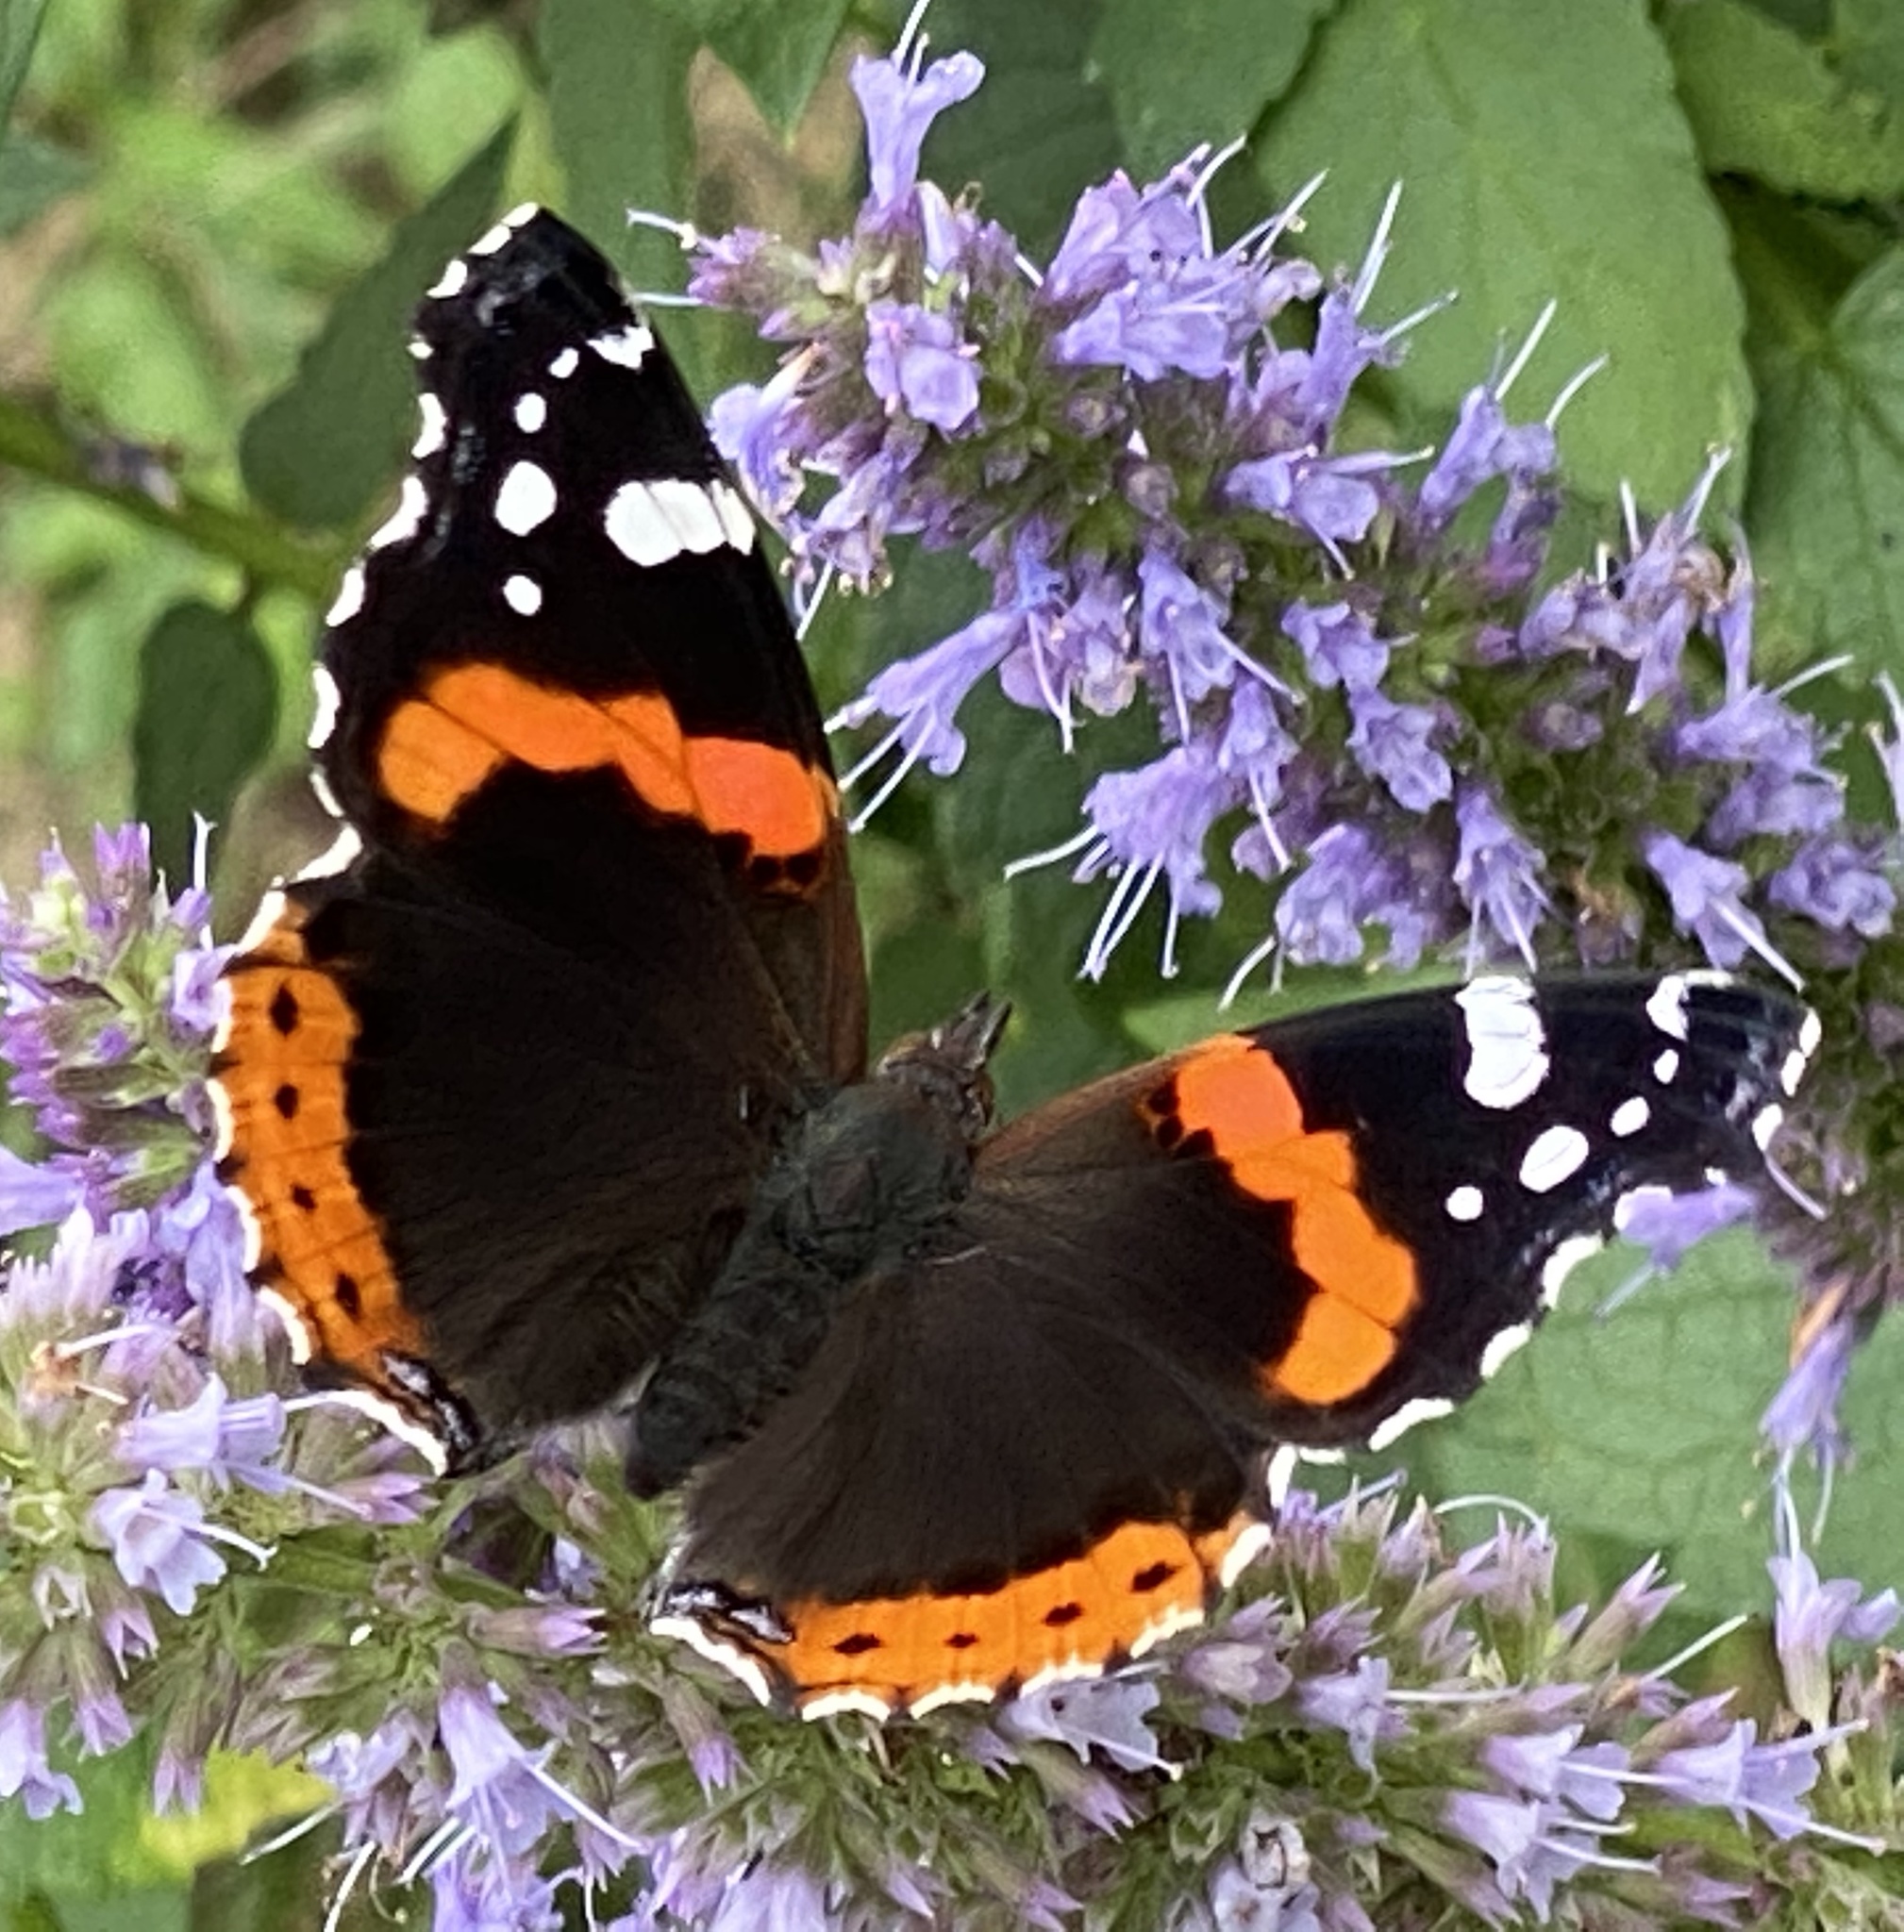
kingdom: Animalia
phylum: Arthropoda
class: Insecta
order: Lepidoptera
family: Nymphalidae
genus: Vanessa
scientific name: Vanessa atalanta
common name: Red admiral
